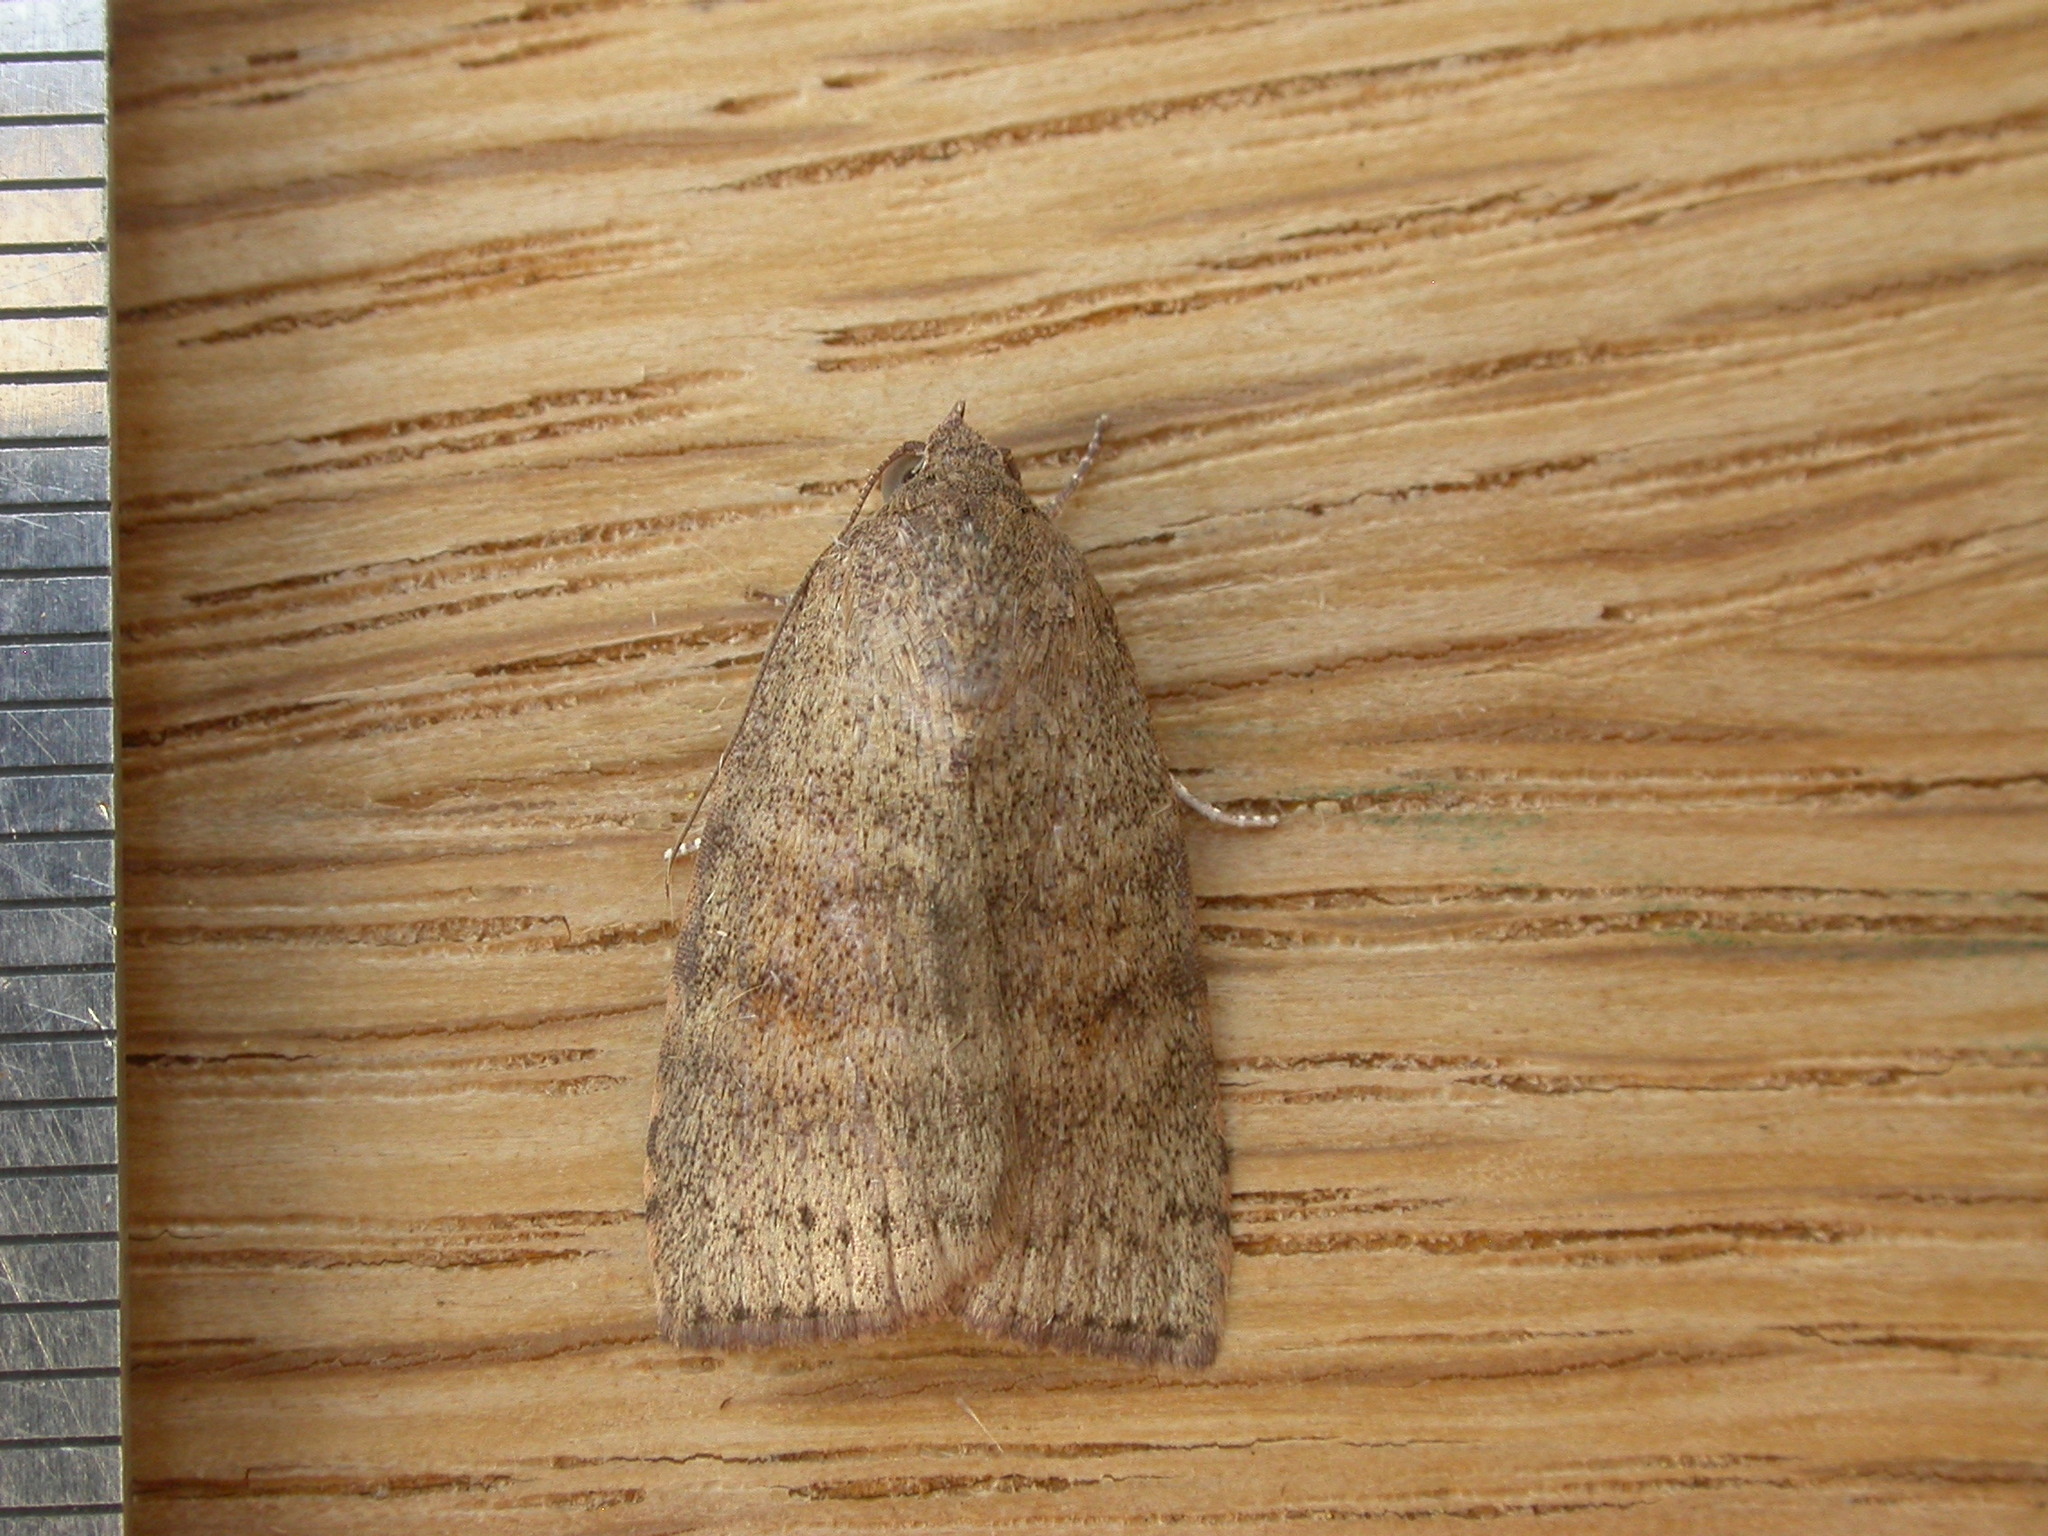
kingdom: Animalia
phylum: Arthropoda
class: Insecta
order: Lepidoptera
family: Nolidae
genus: Austrocarea
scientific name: Austrocarea iocephala
